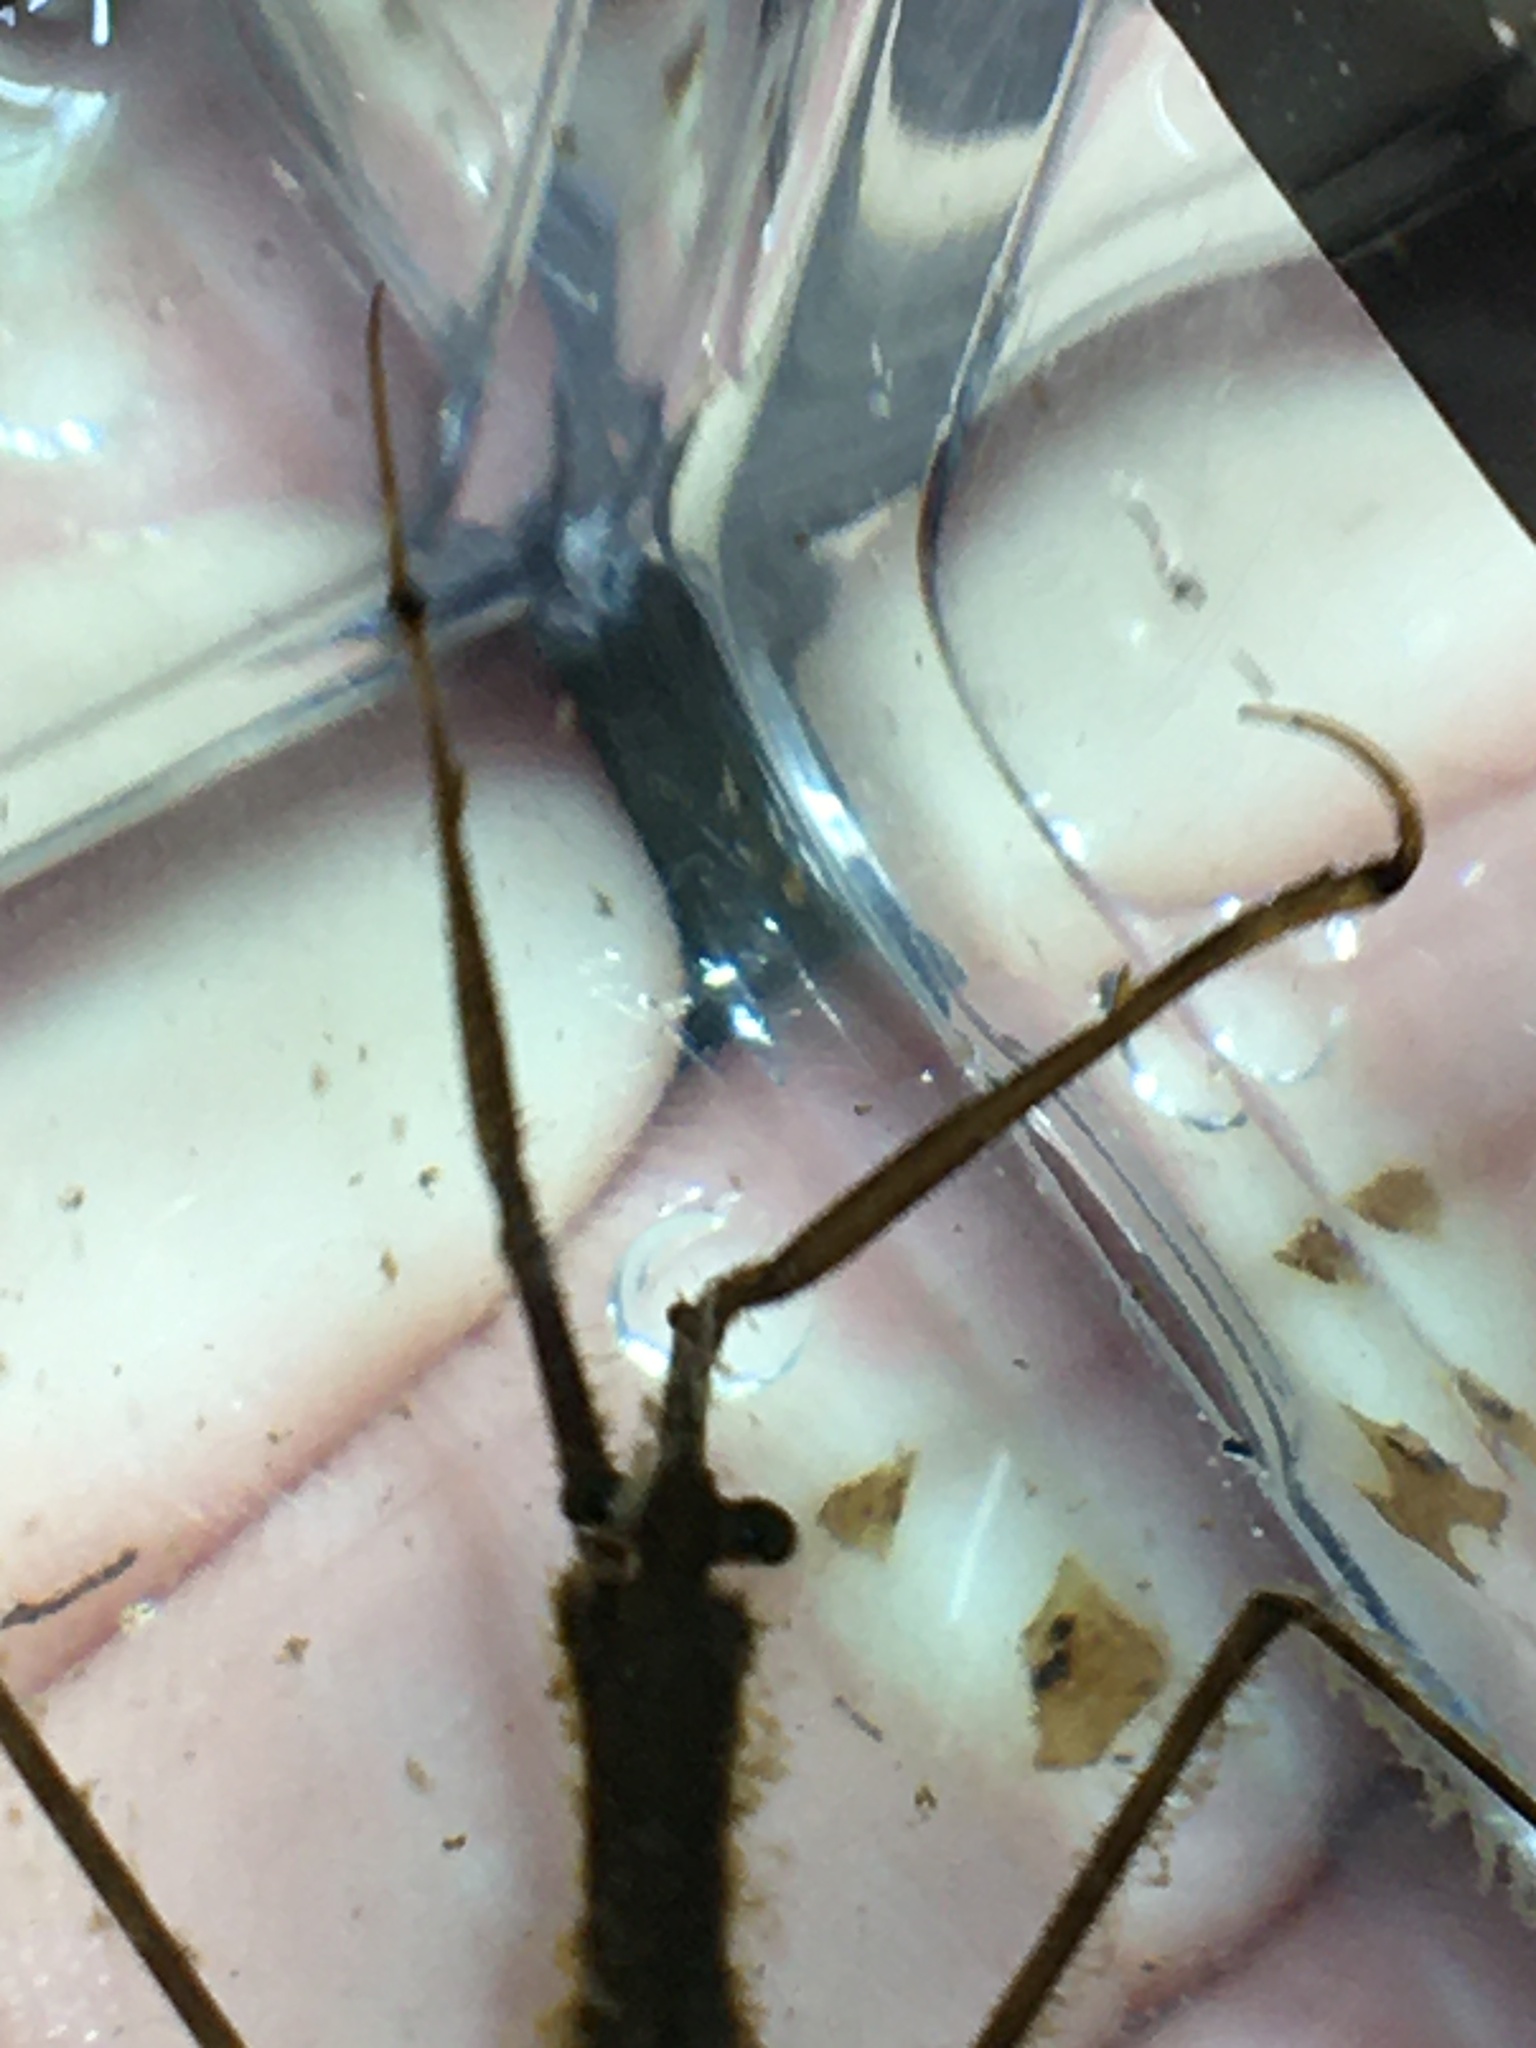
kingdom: Animalia
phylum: Arthropoda
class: Insecta
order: Hemiptera
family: Nepidae
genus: Ranatra
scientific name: Ranatra fusca
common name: Brown waterscorpion
